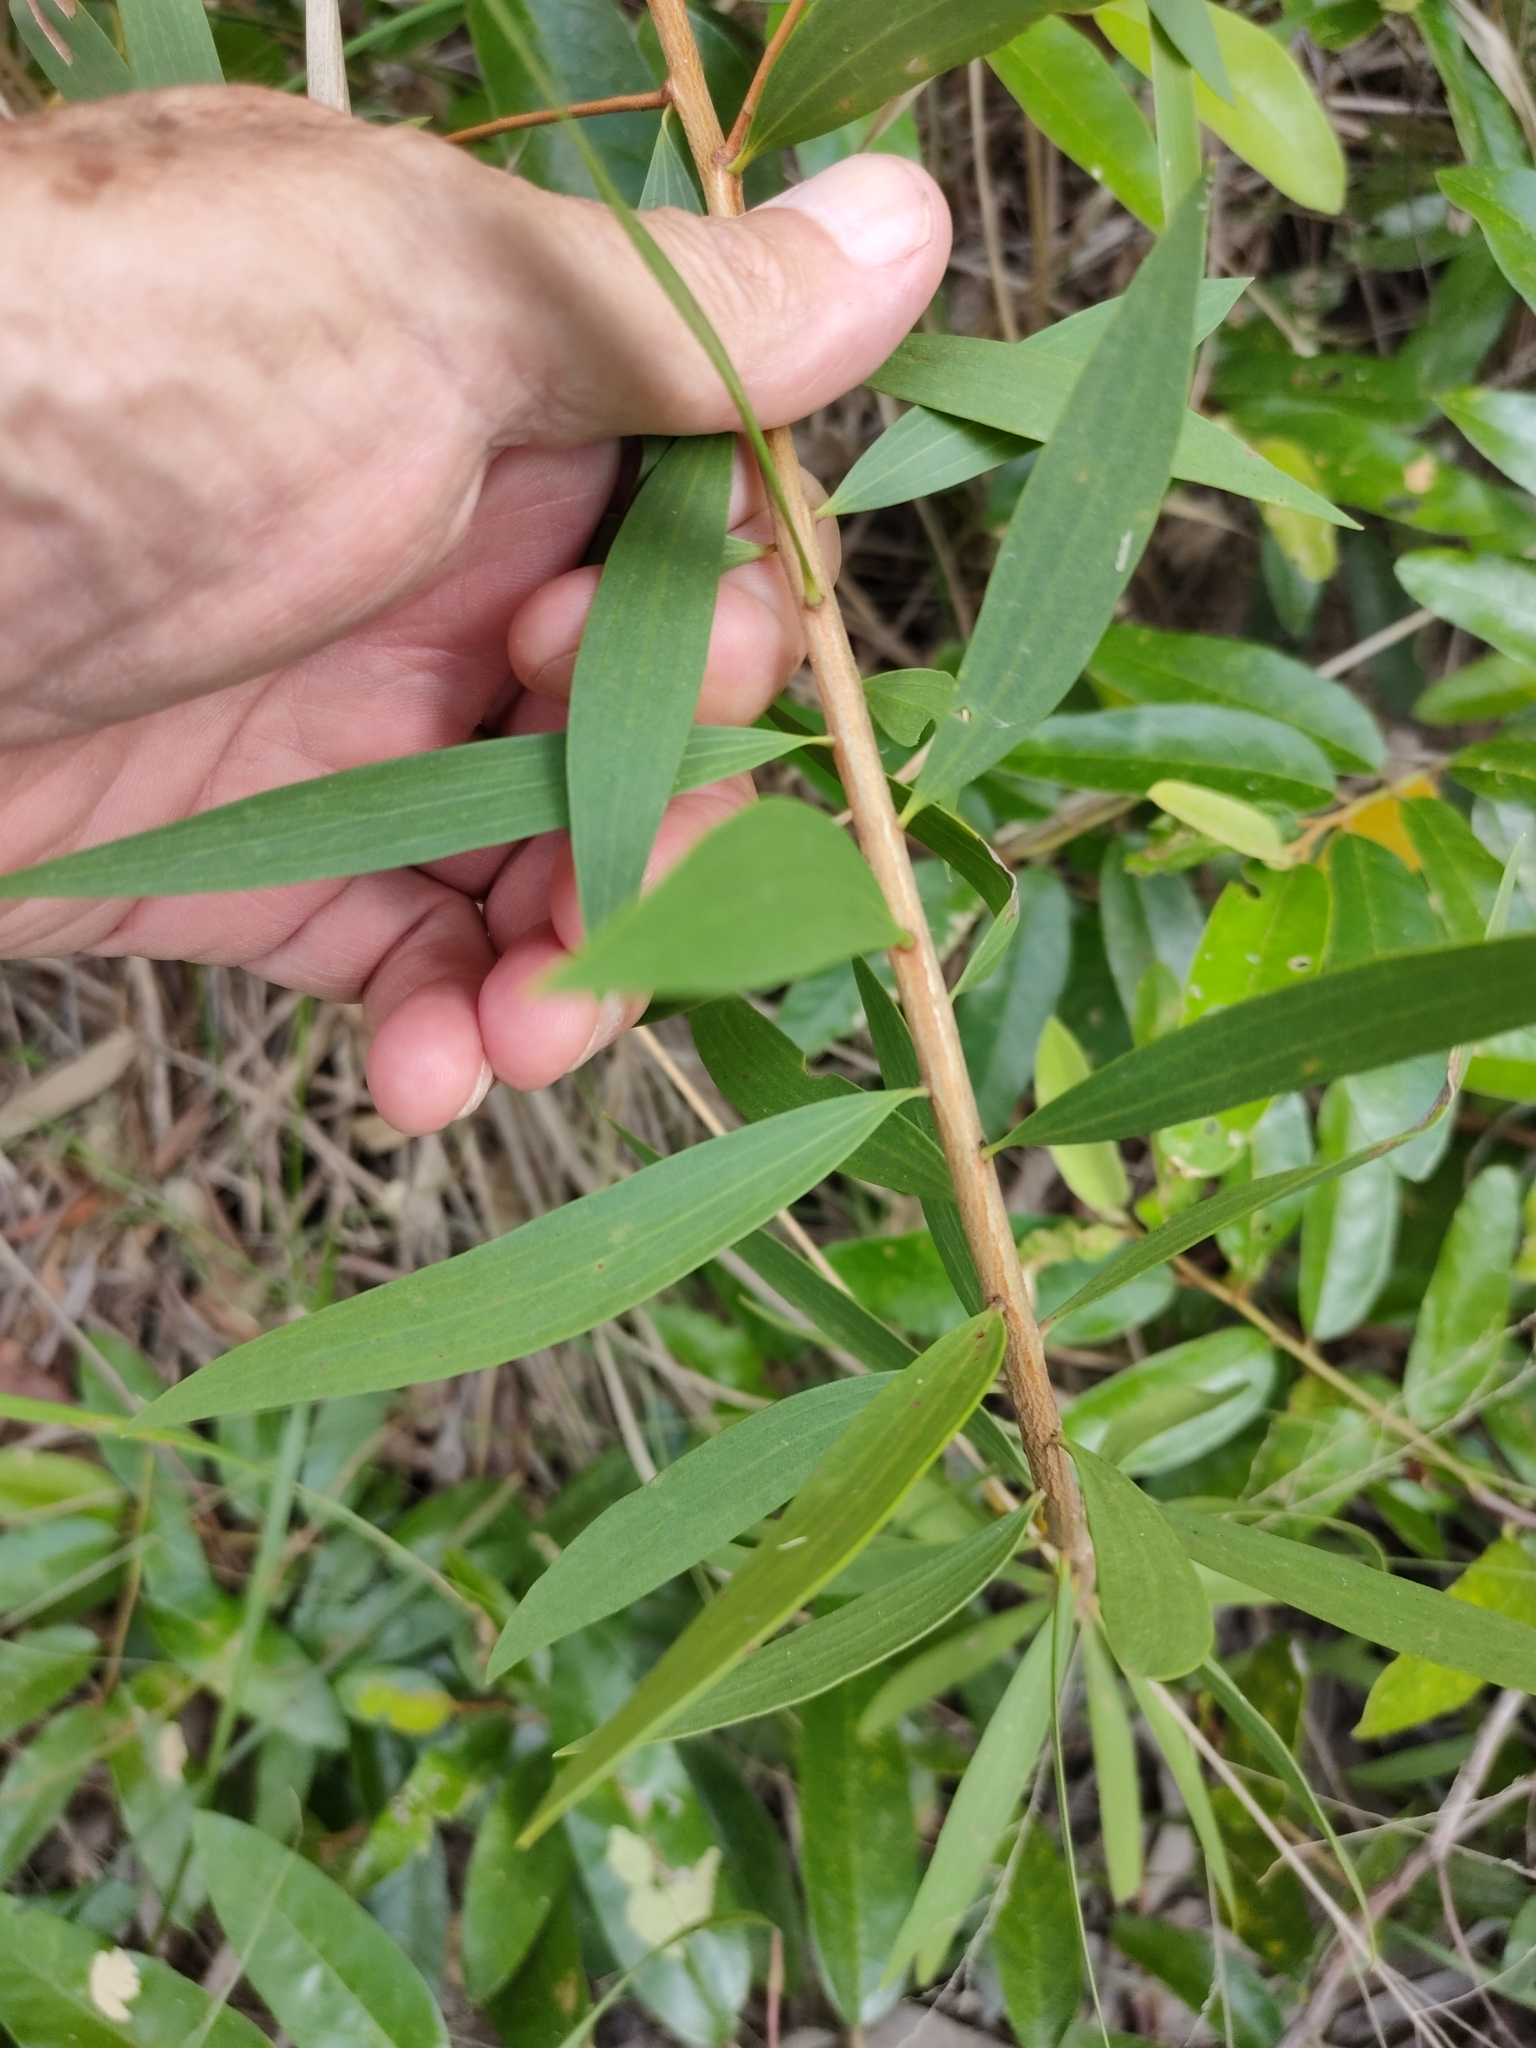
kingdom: Plantae
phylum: Tracheophyta
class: Magnoliopsida
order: Myrtales
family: Myrtaceae
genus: Melaleuca
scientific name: Melaleuca quinquenervia
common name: Punktree
